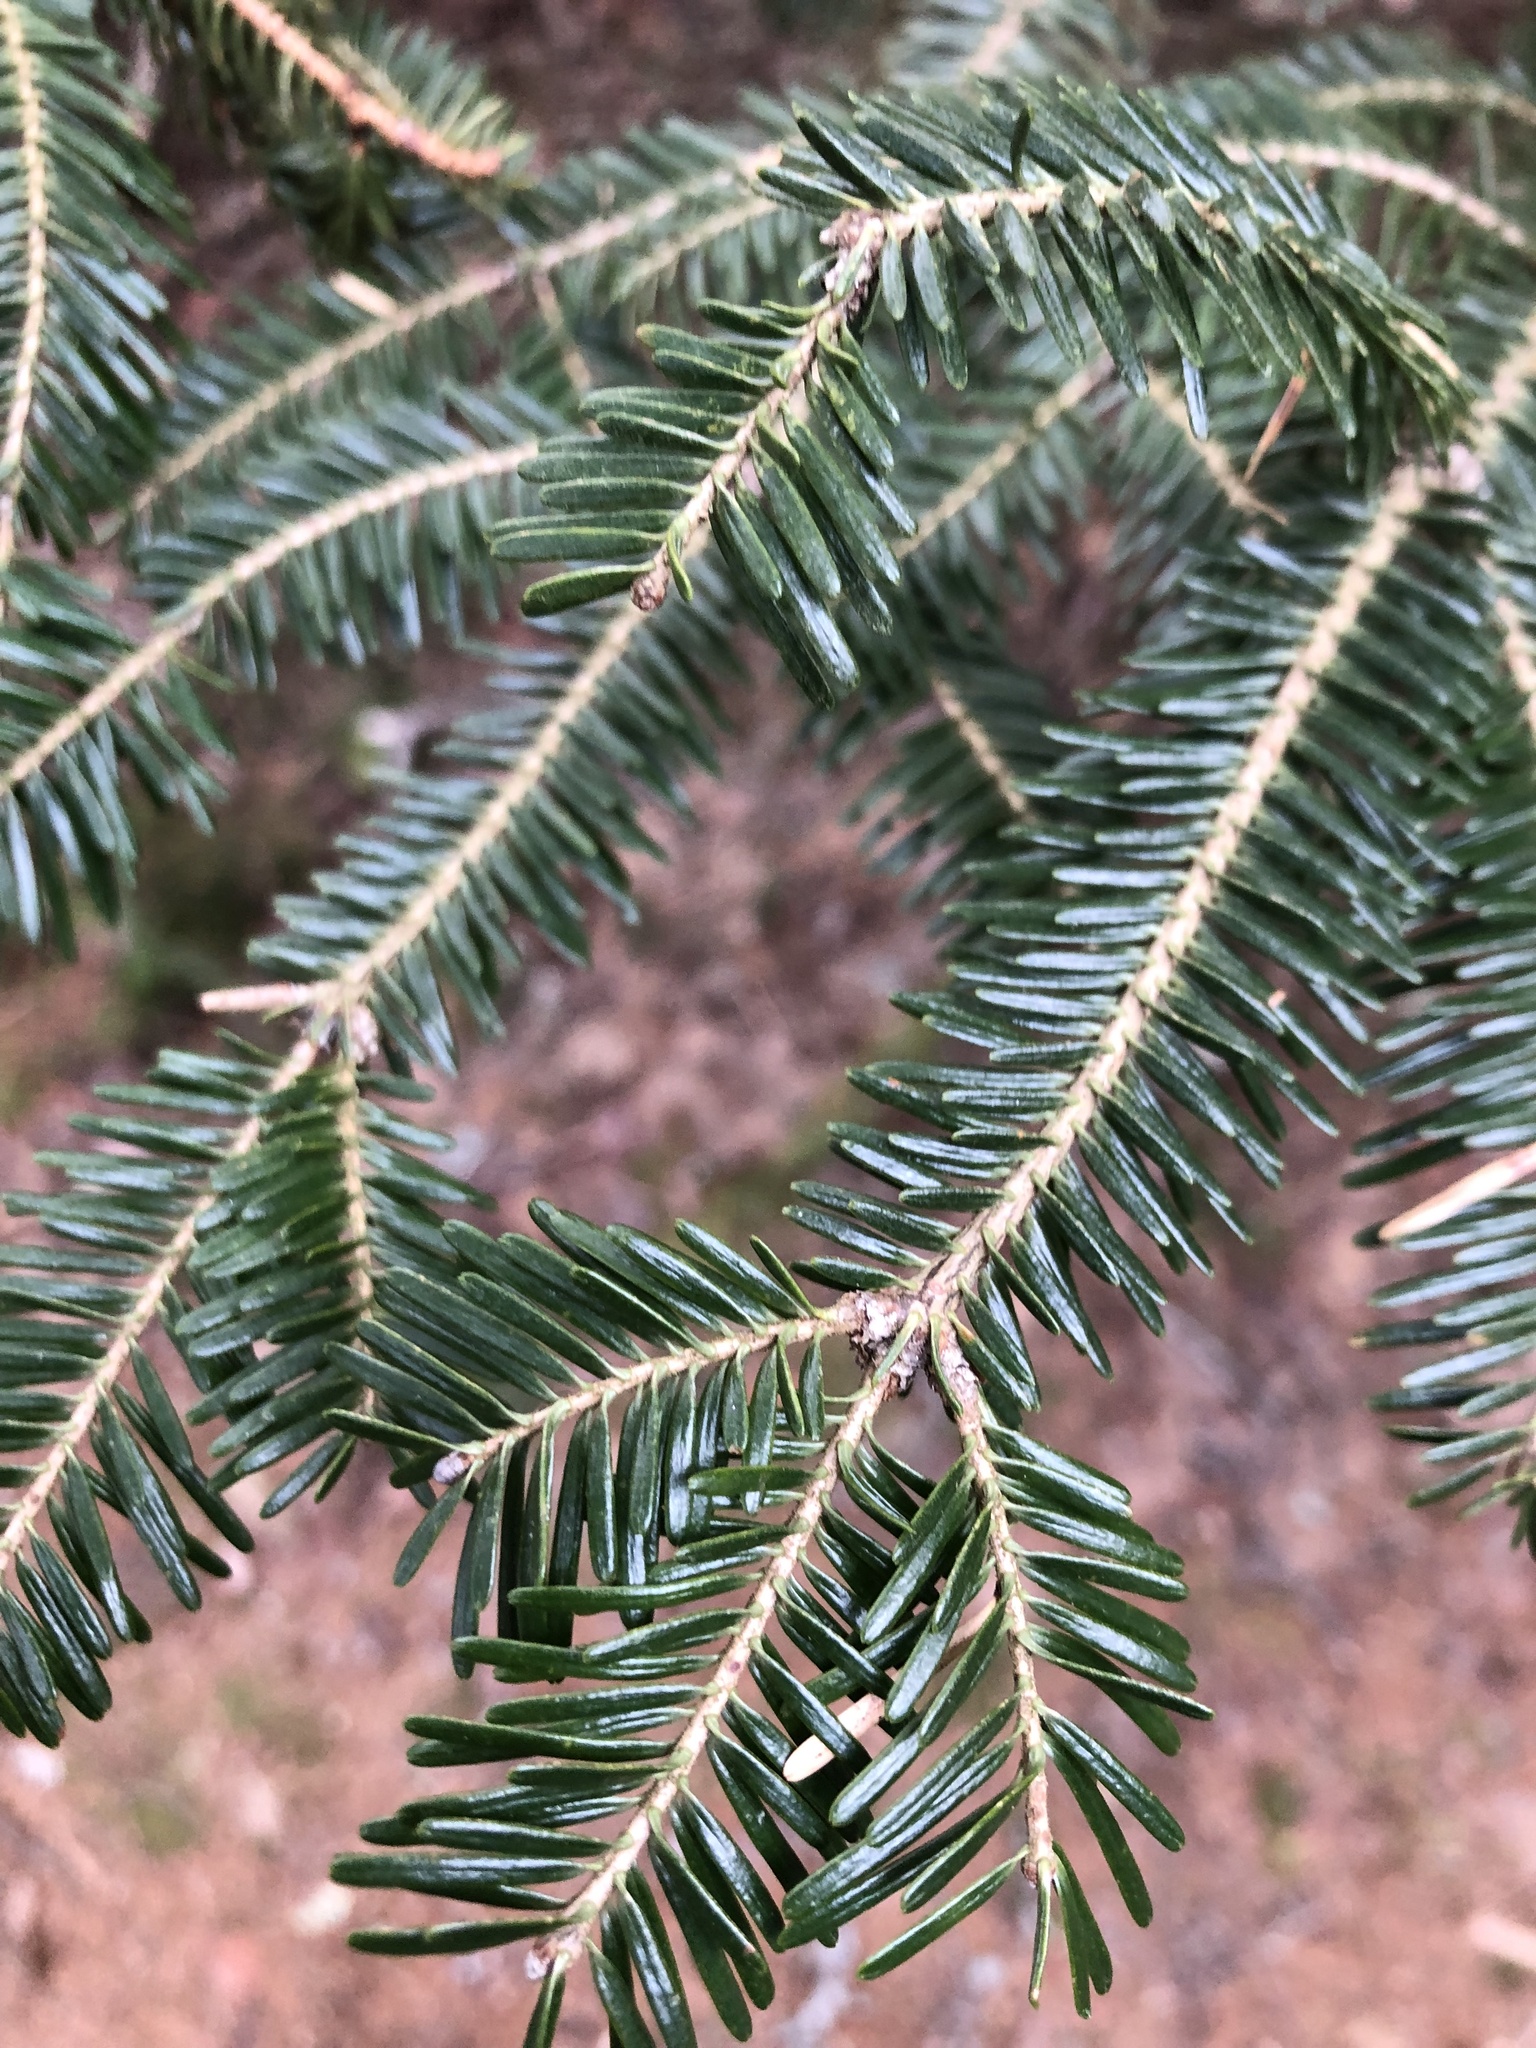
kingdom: Plantae
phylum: Tracheophyta
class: Pinopsida
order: Pinales
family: Pinaceae
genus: Abies
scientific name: Abies balsamea
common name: Balsam fir
